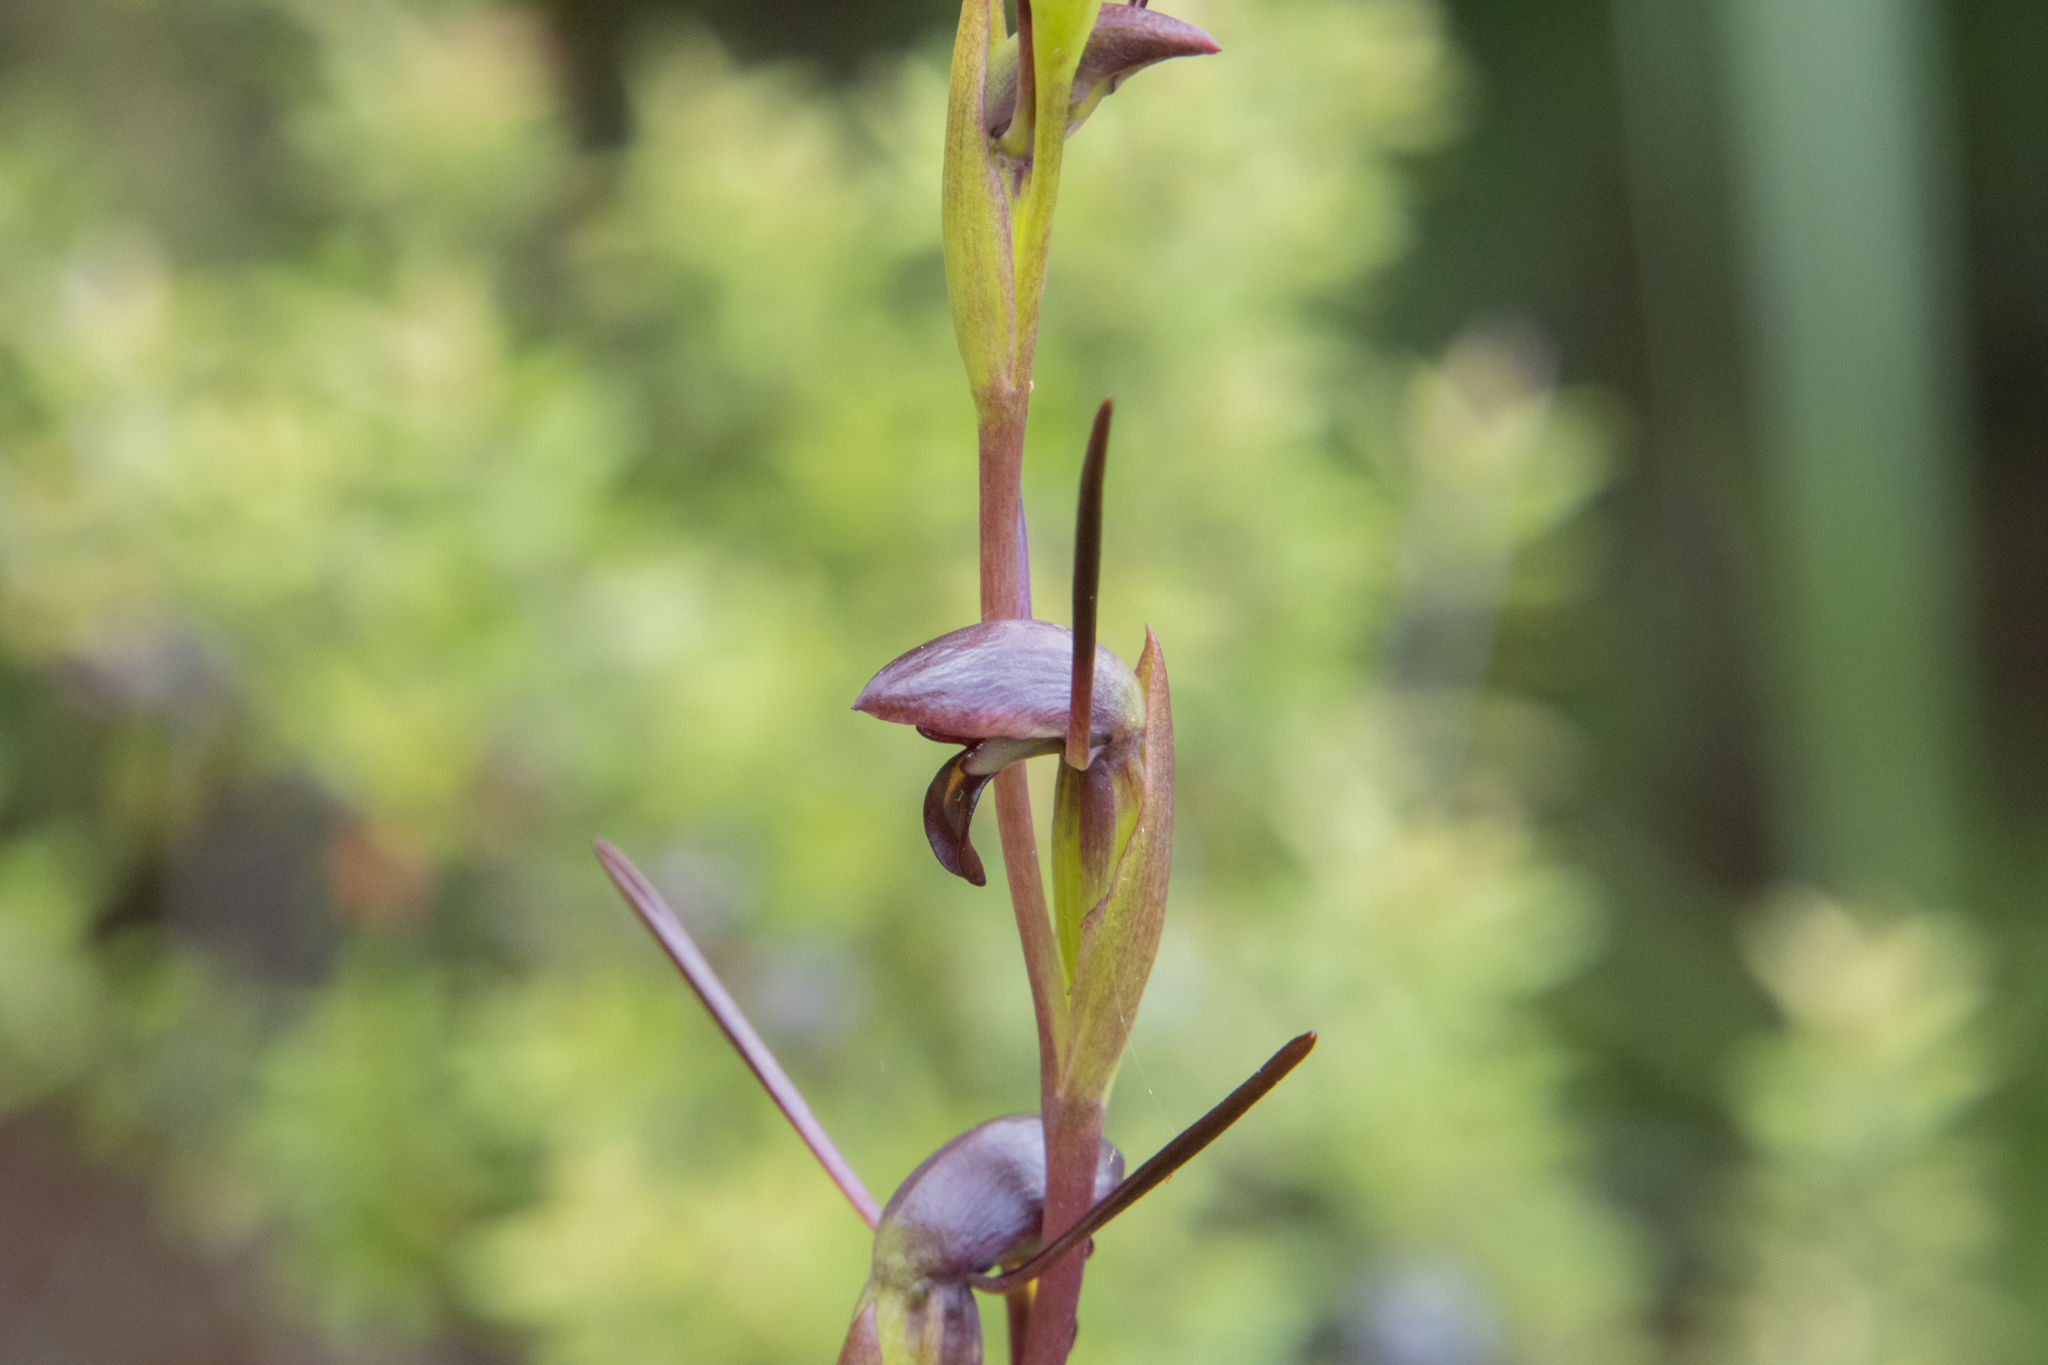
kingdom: Plantae
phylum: Tracheophyta
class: Liliopsida
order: Asparagales
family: Orchidaceae
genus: Orthoceras
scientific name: Orthoceras novae-zeelandiae
